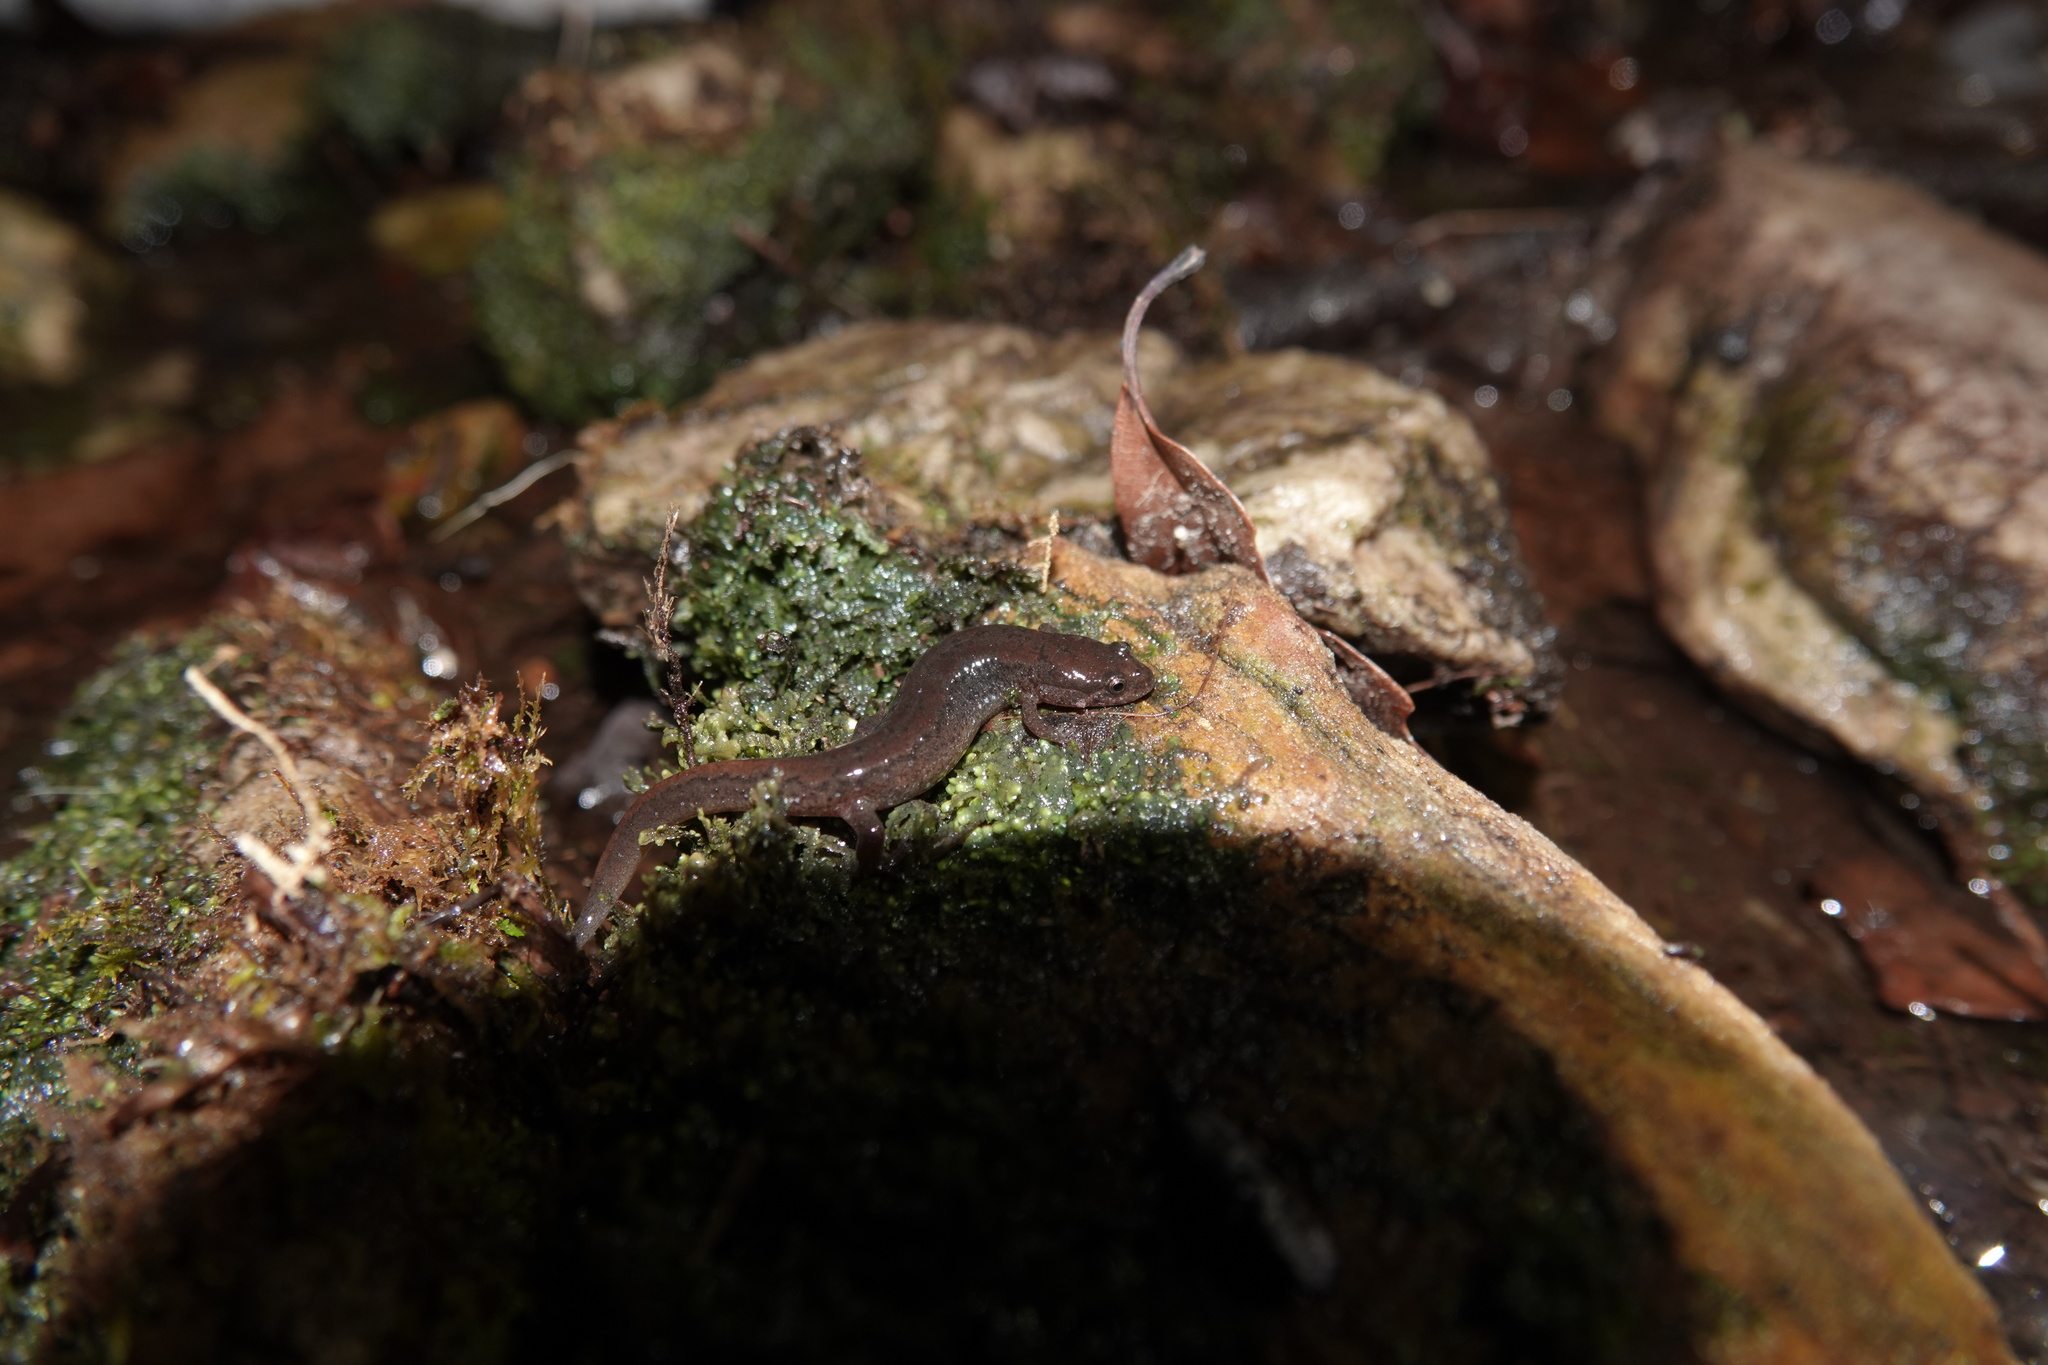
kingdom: Animalia
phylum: Chordata
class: Amphibia
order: Caudata
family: Plethodontidae
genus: Desmognathus
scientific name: Desmognathus fuscus
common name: Northern dusky salamander
